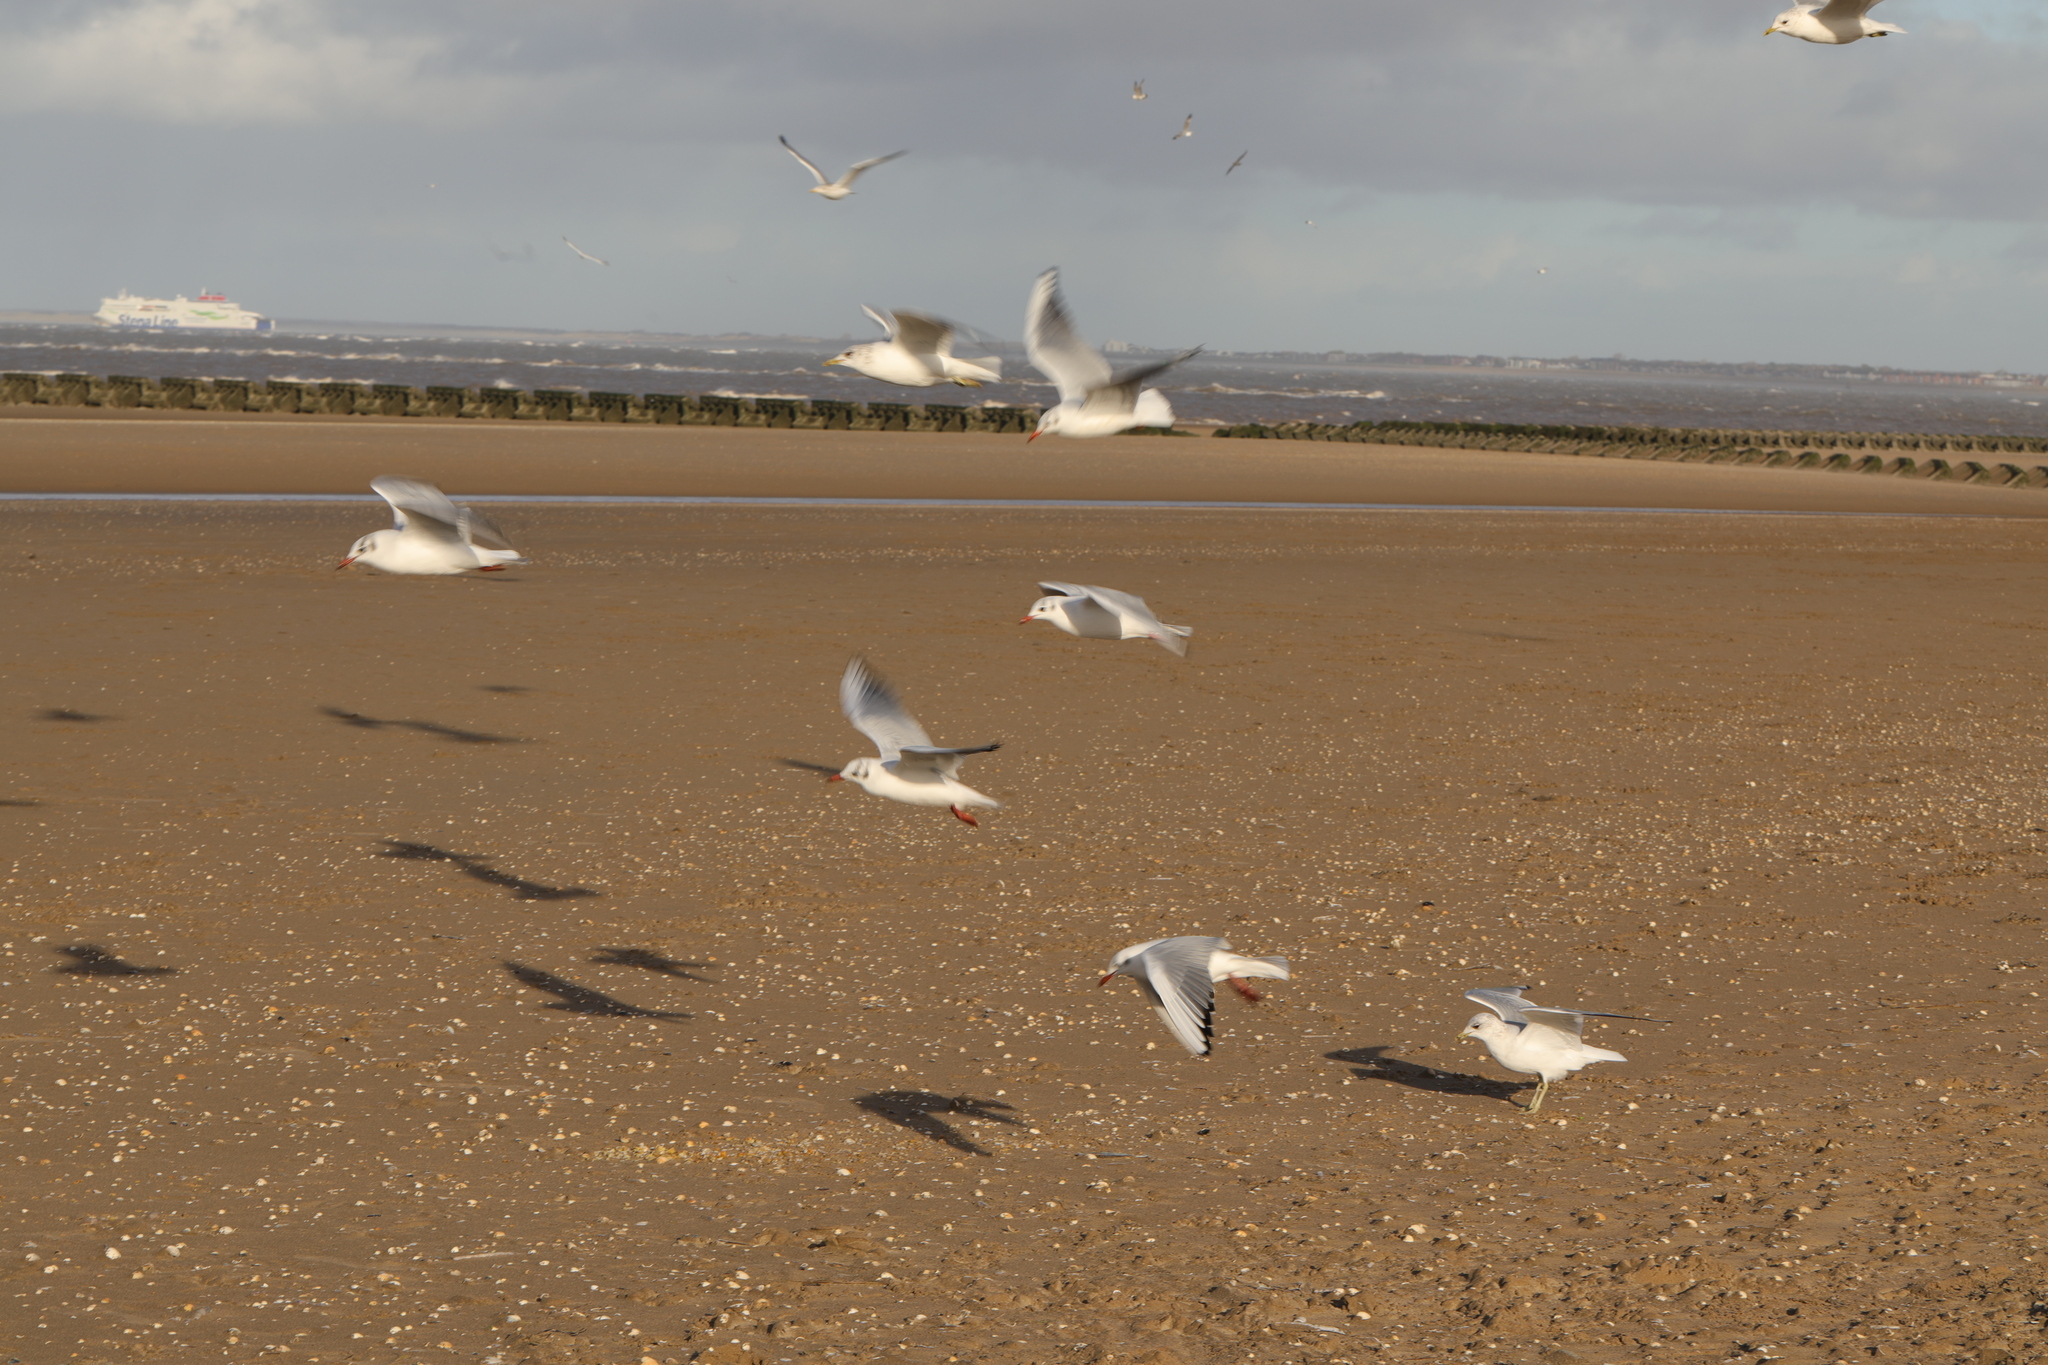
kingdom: Animalia
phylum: Chordata
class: Aves
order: Charadriiformes
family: Laridae
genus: Chroicocephalus
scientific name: Chroicocephalus ridibundus
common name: Black-headed gull
